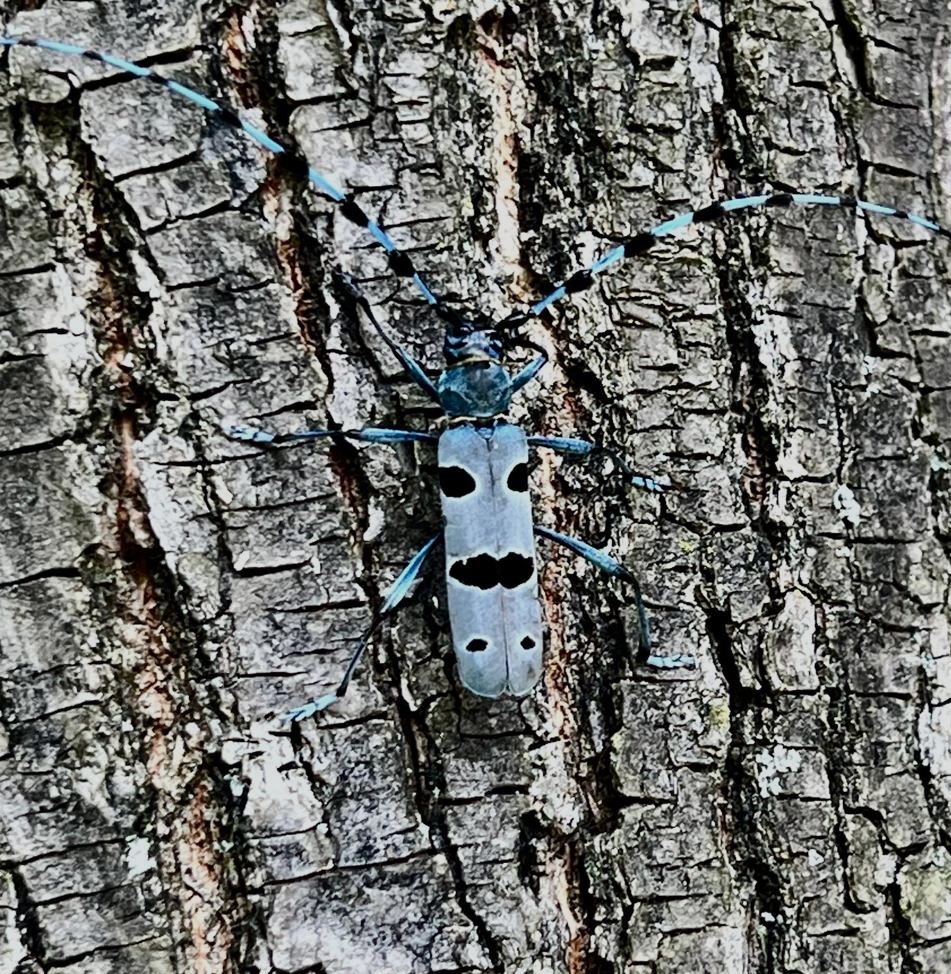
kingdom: Animalia
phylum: Arthropoda
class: Insecta
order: Coleoptera
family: Cerambycidae
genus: Rosalia
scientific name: Rosalia alpina
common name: Rosalia longicorn
